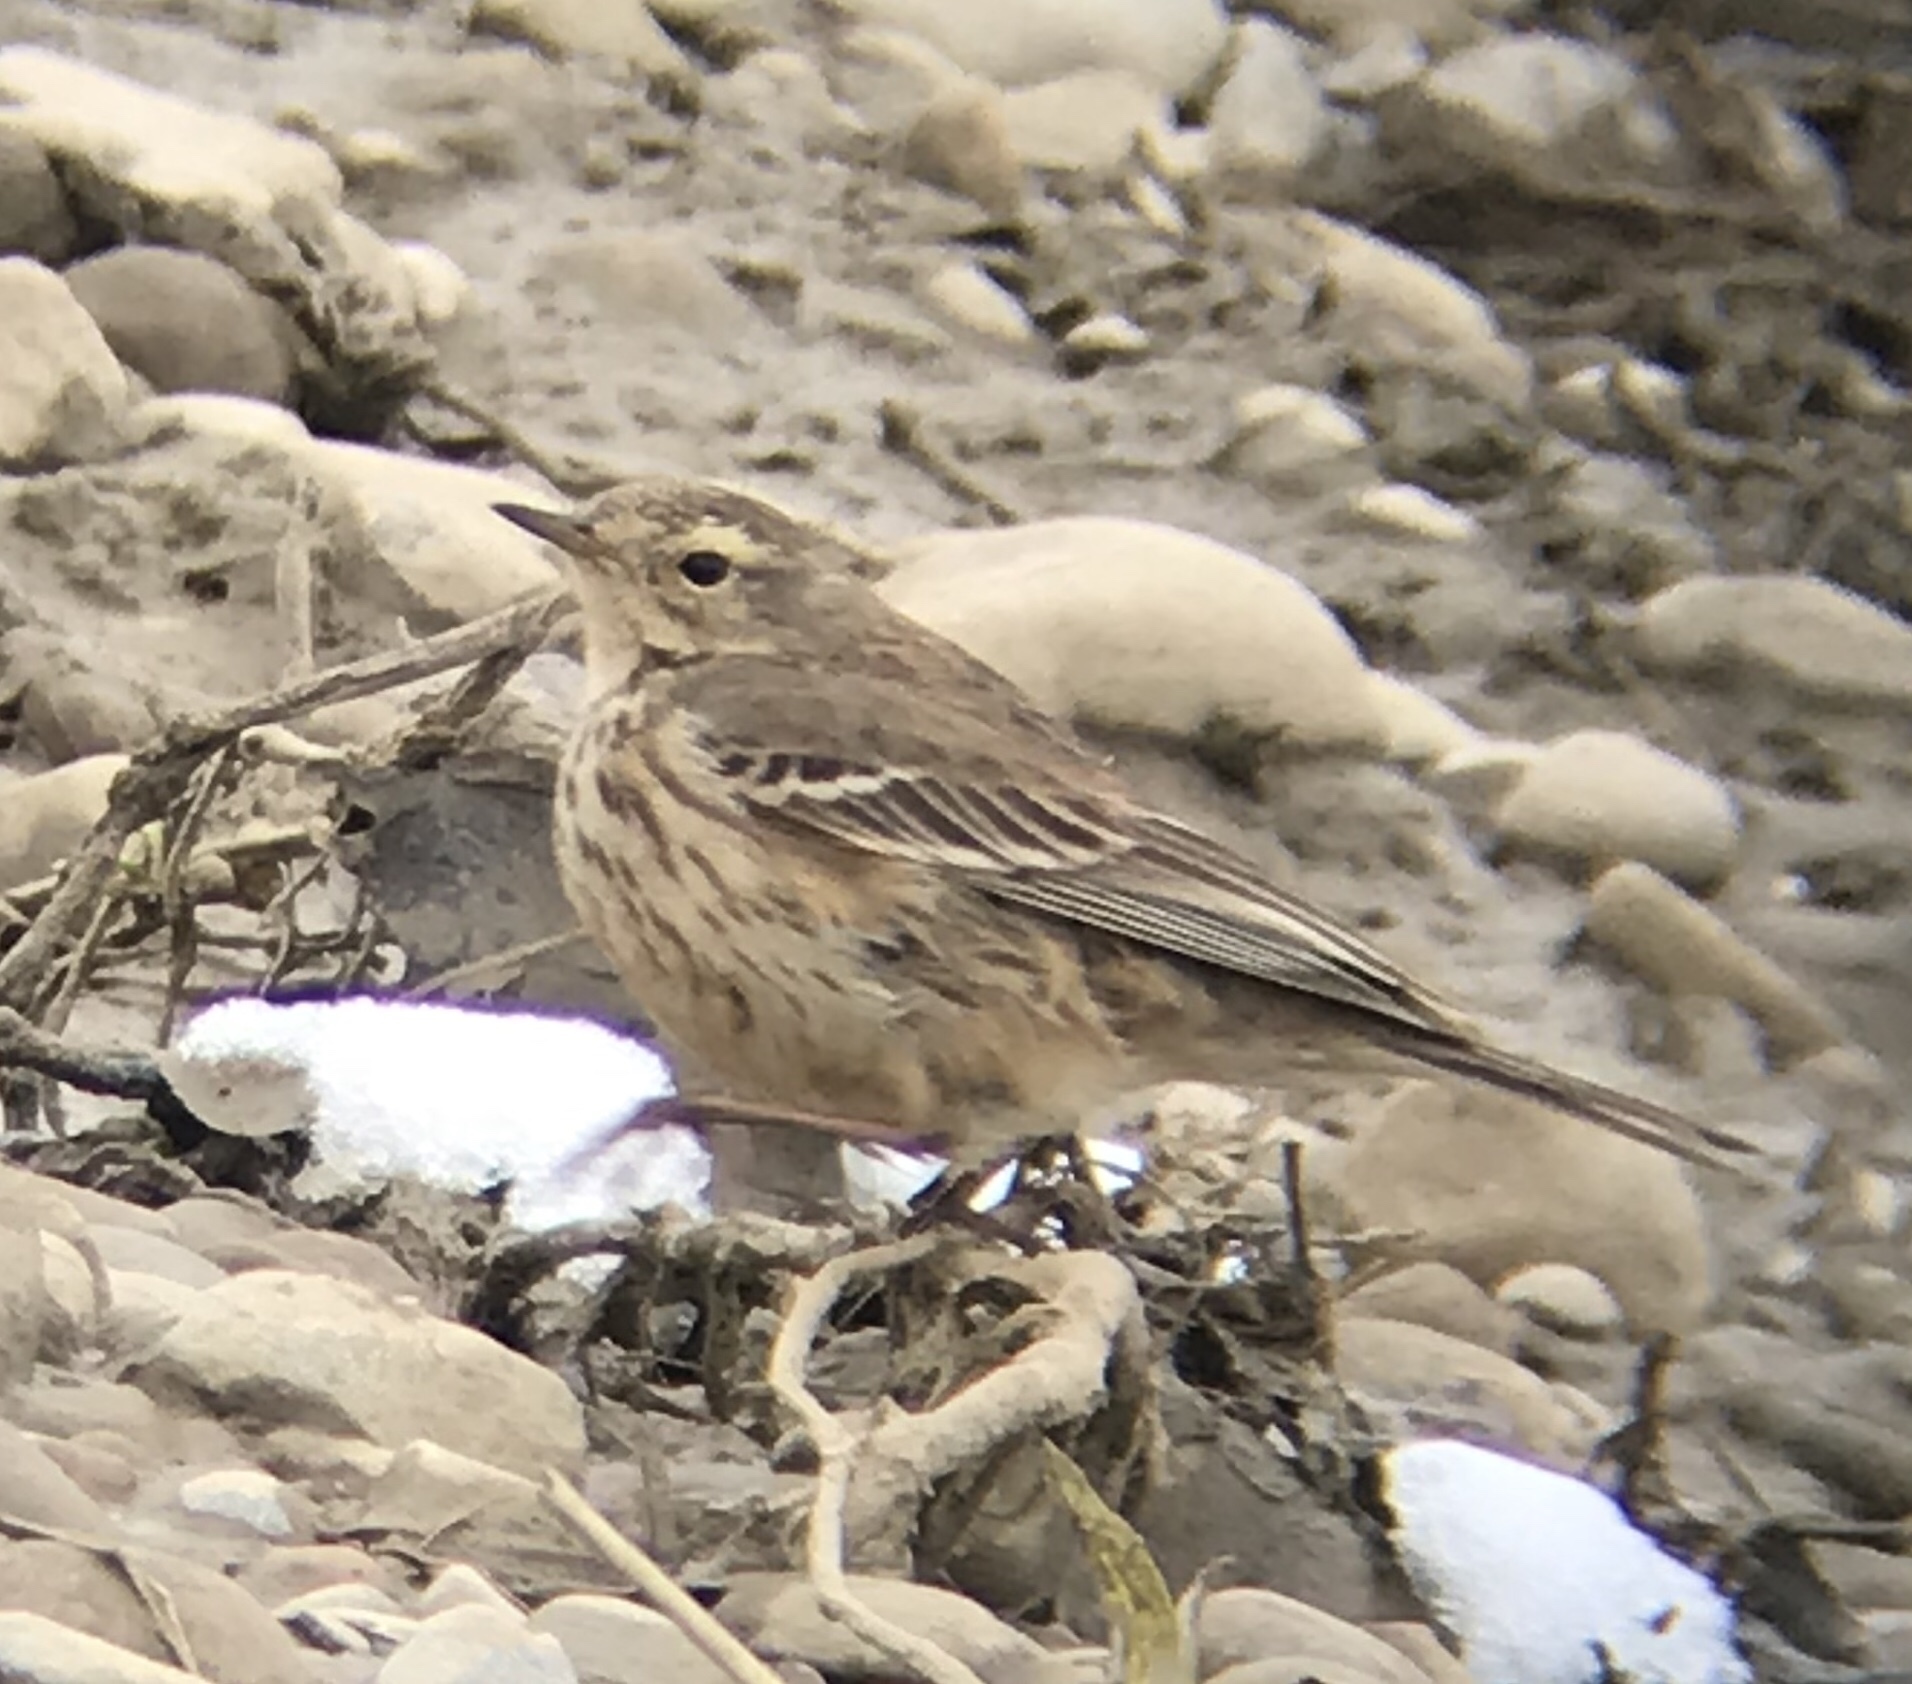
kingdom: Animalia
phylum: Chordata
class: Aves
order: Passeriformes
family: Motacillidae
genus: Anthus
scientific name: Anthus rubescens
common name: Buff-bellied pipit
